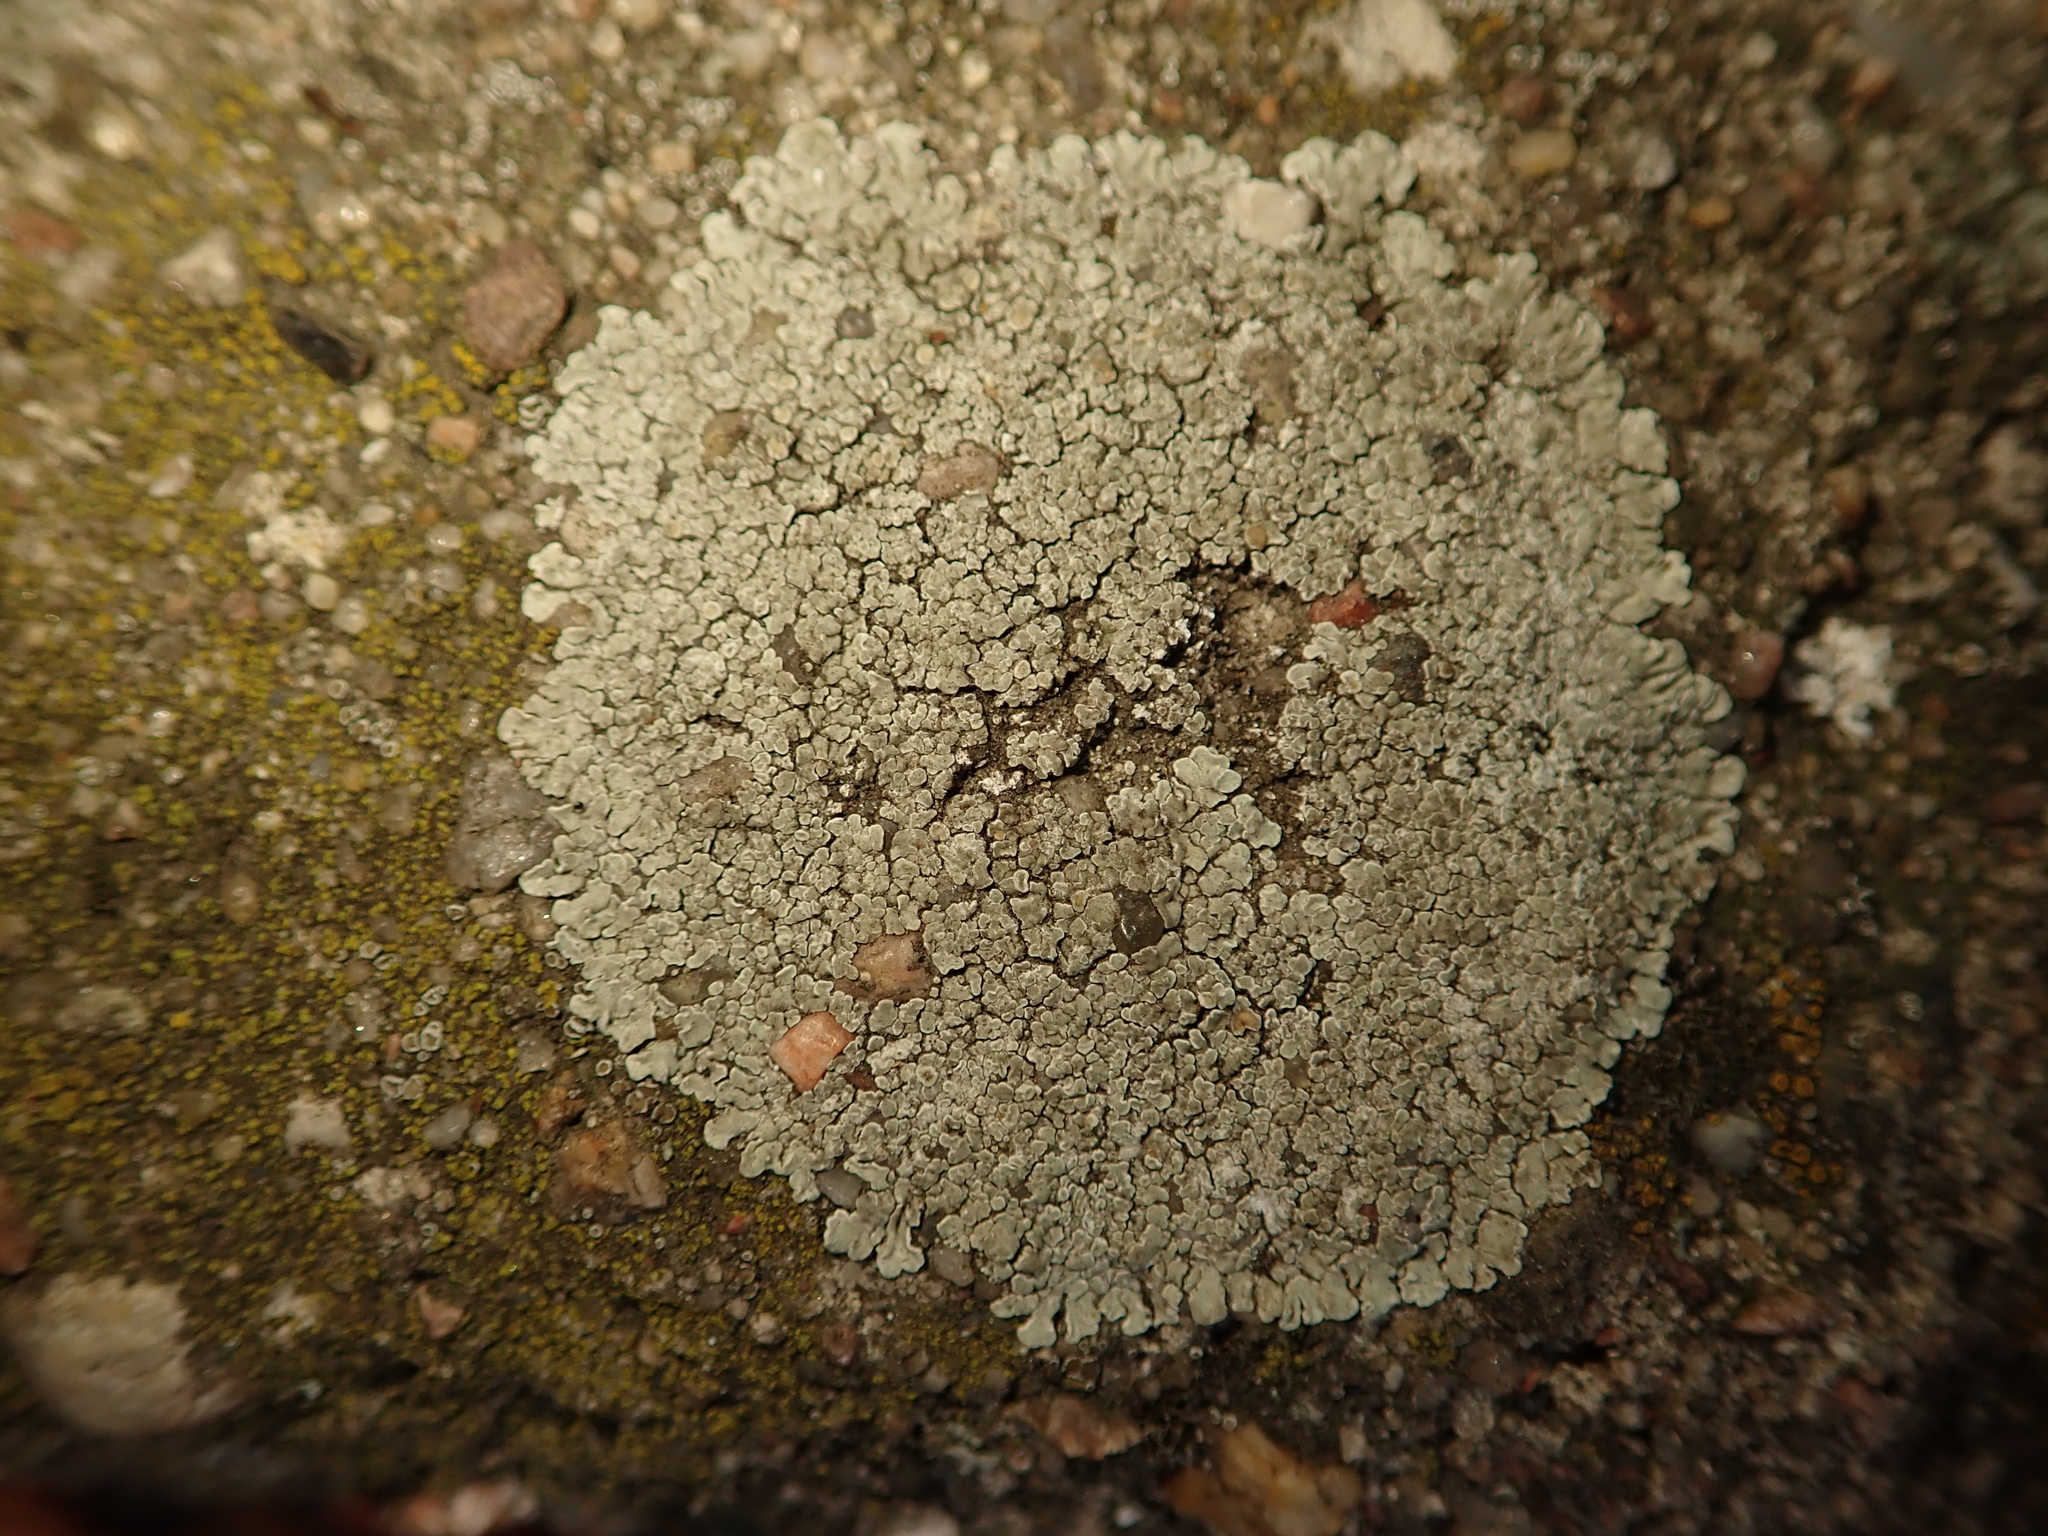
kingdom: Fungi
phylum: Ascomycota
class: Lecanoromycetes
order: Lecanorales
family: Lecanoraceae
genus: Protoparmeliopsis
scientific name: Protoparmeliopsis muralis
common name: Stonewall rim lichen
